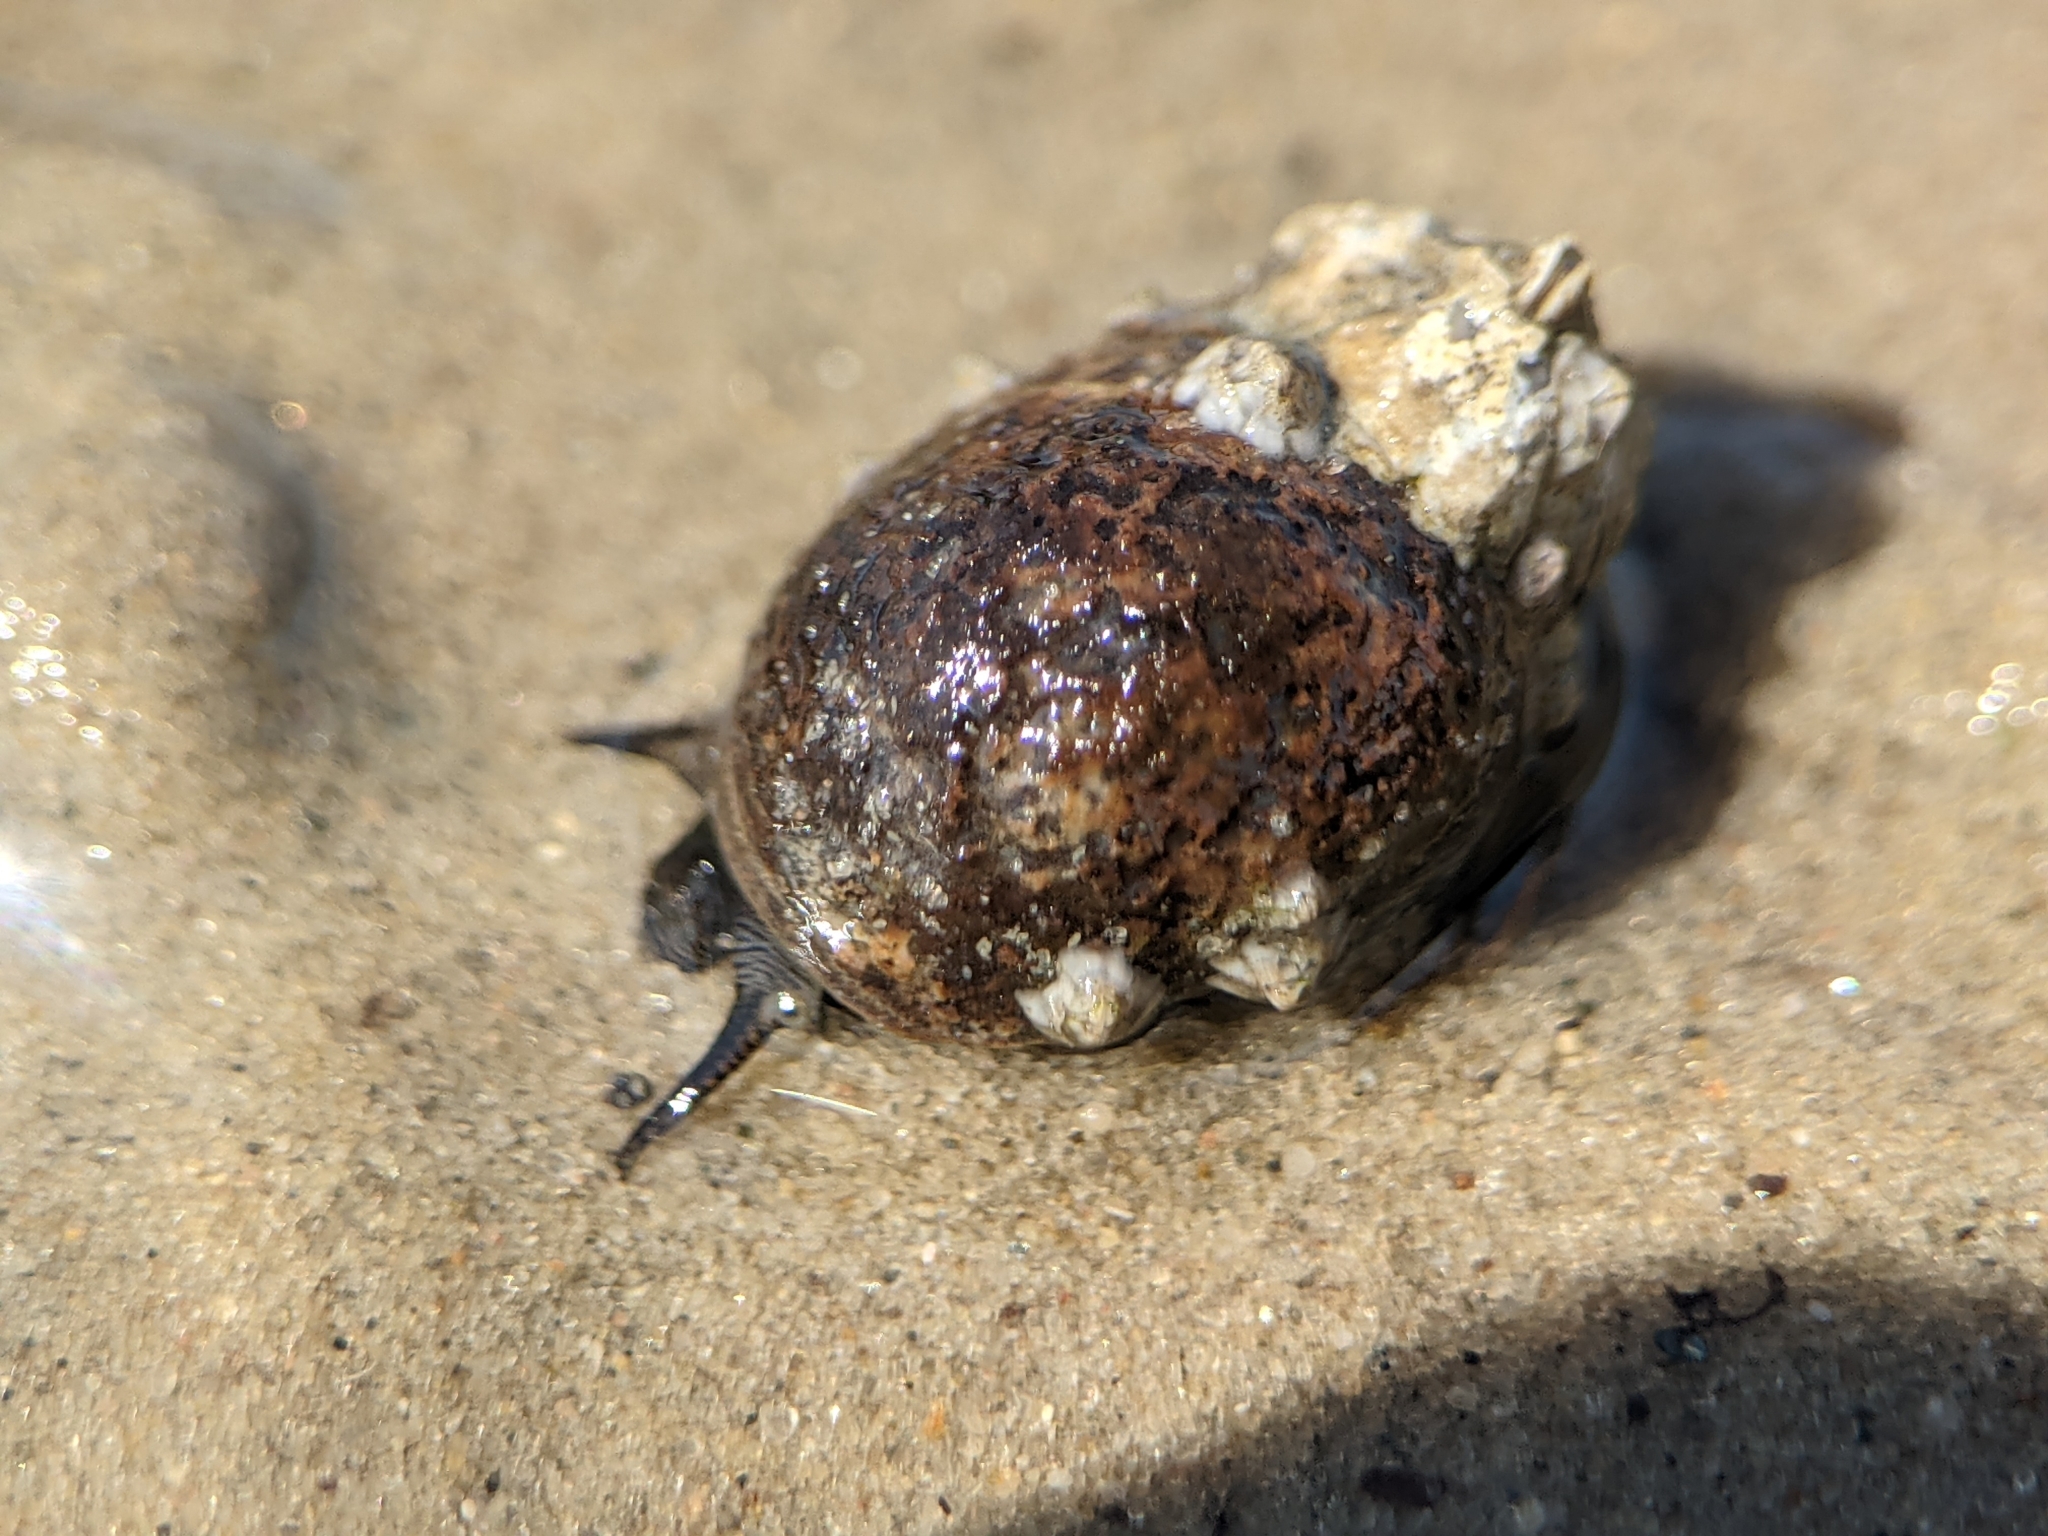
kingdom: Animalia
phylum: Mollusca
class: Gastropoda
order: Littorinimorpha
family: Littorinidae
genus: Littorina
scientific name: Littorina littorea
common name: Common periwinkle
